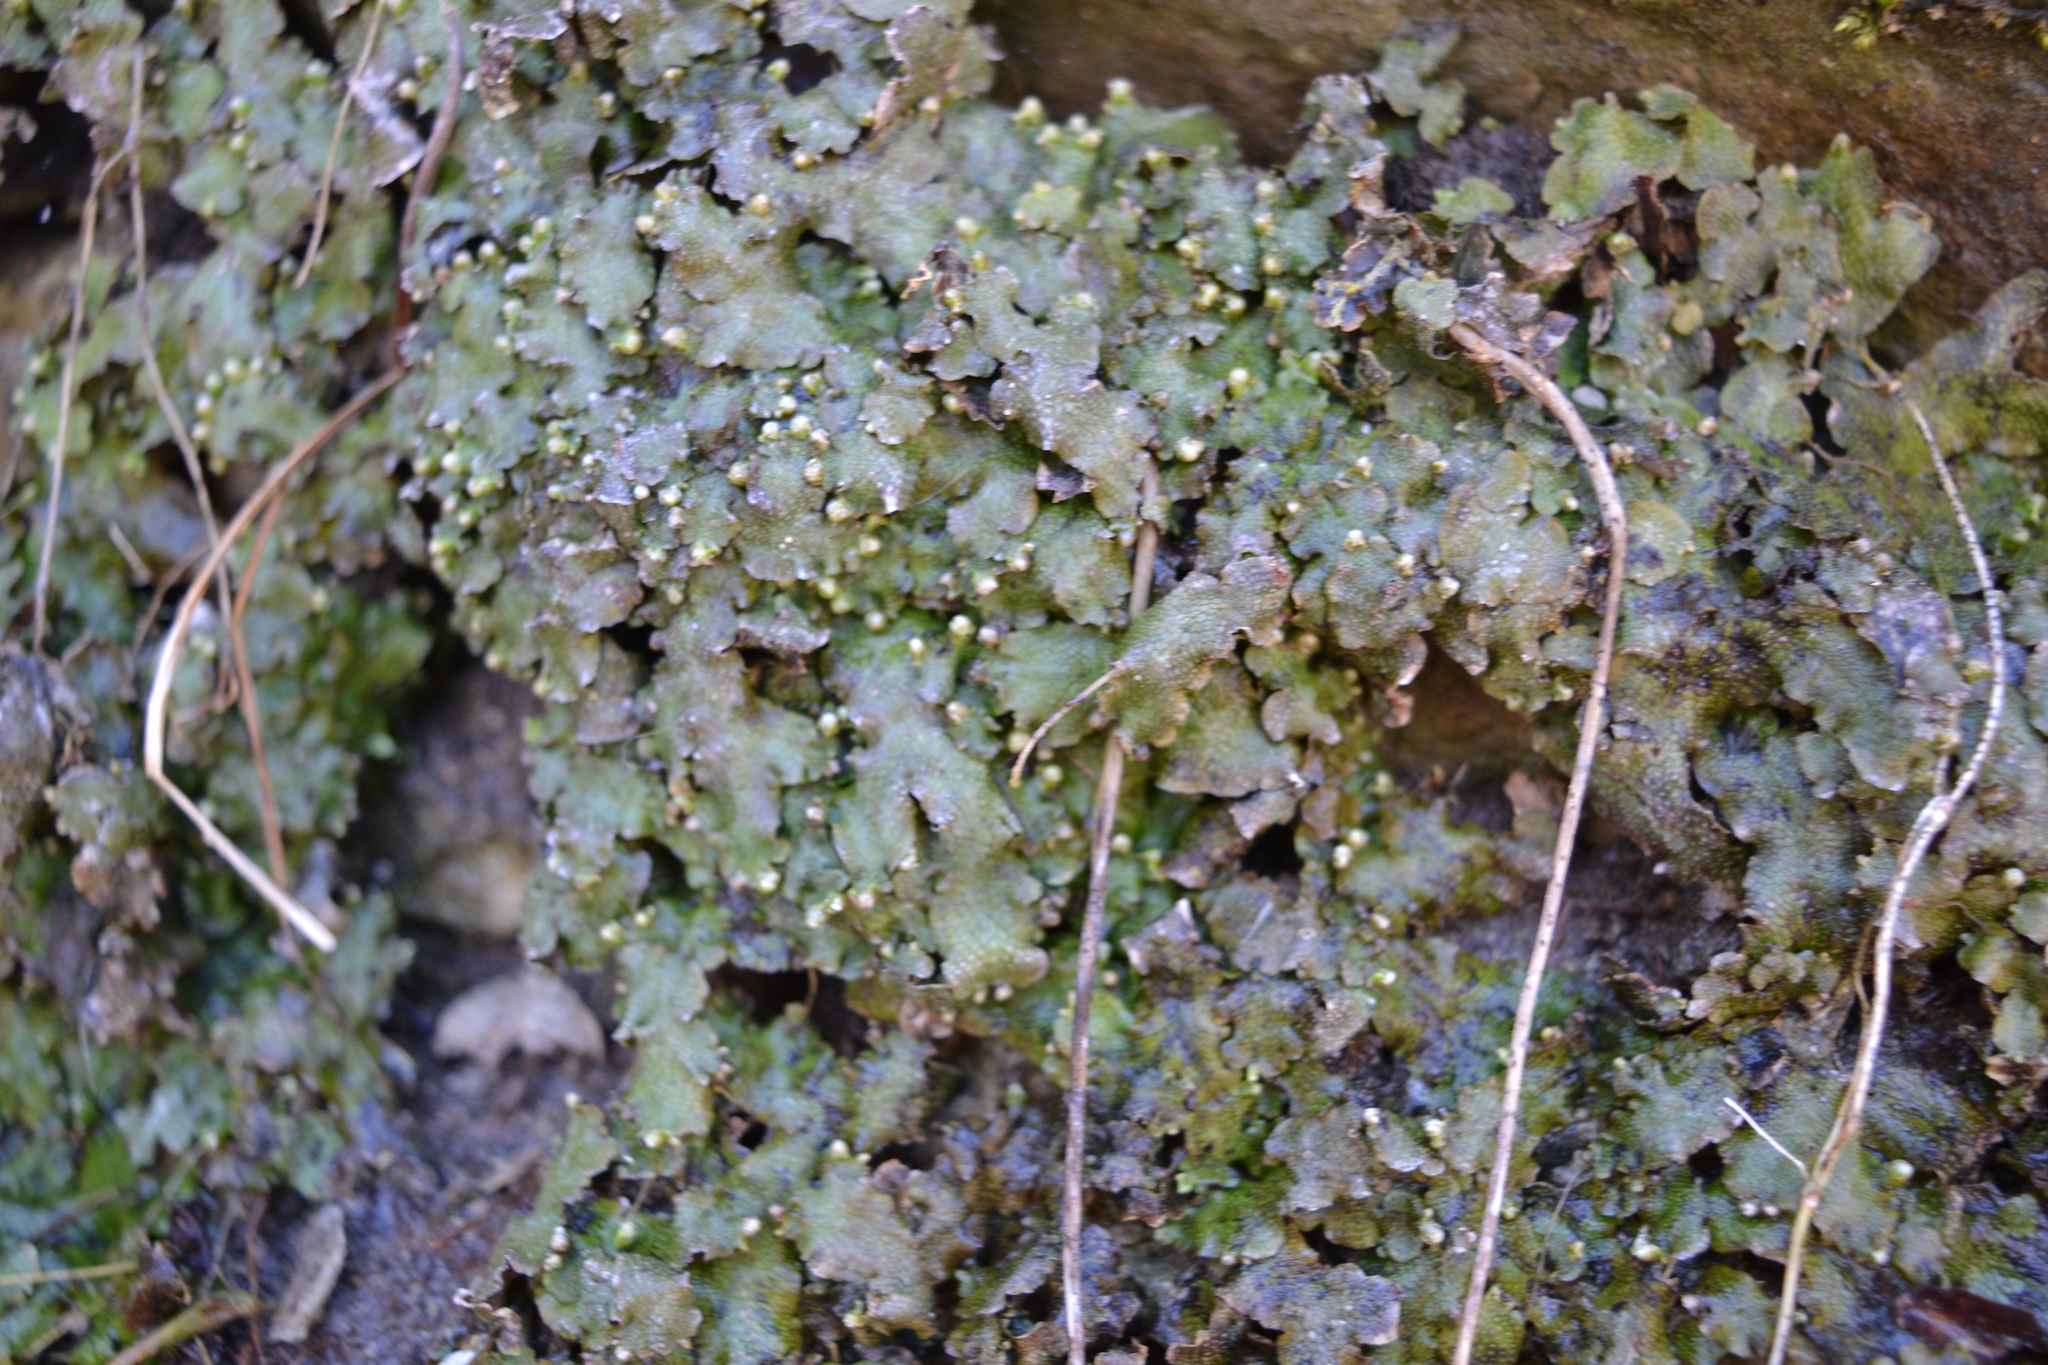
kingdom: Plantae
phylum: Marchantiophyta
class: Marchantiopsida
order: Marchantiales
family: Conocephalaceae
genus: Conocephalum
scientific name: Conocephalum salebrosum
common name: Cat-tongue liverwort
